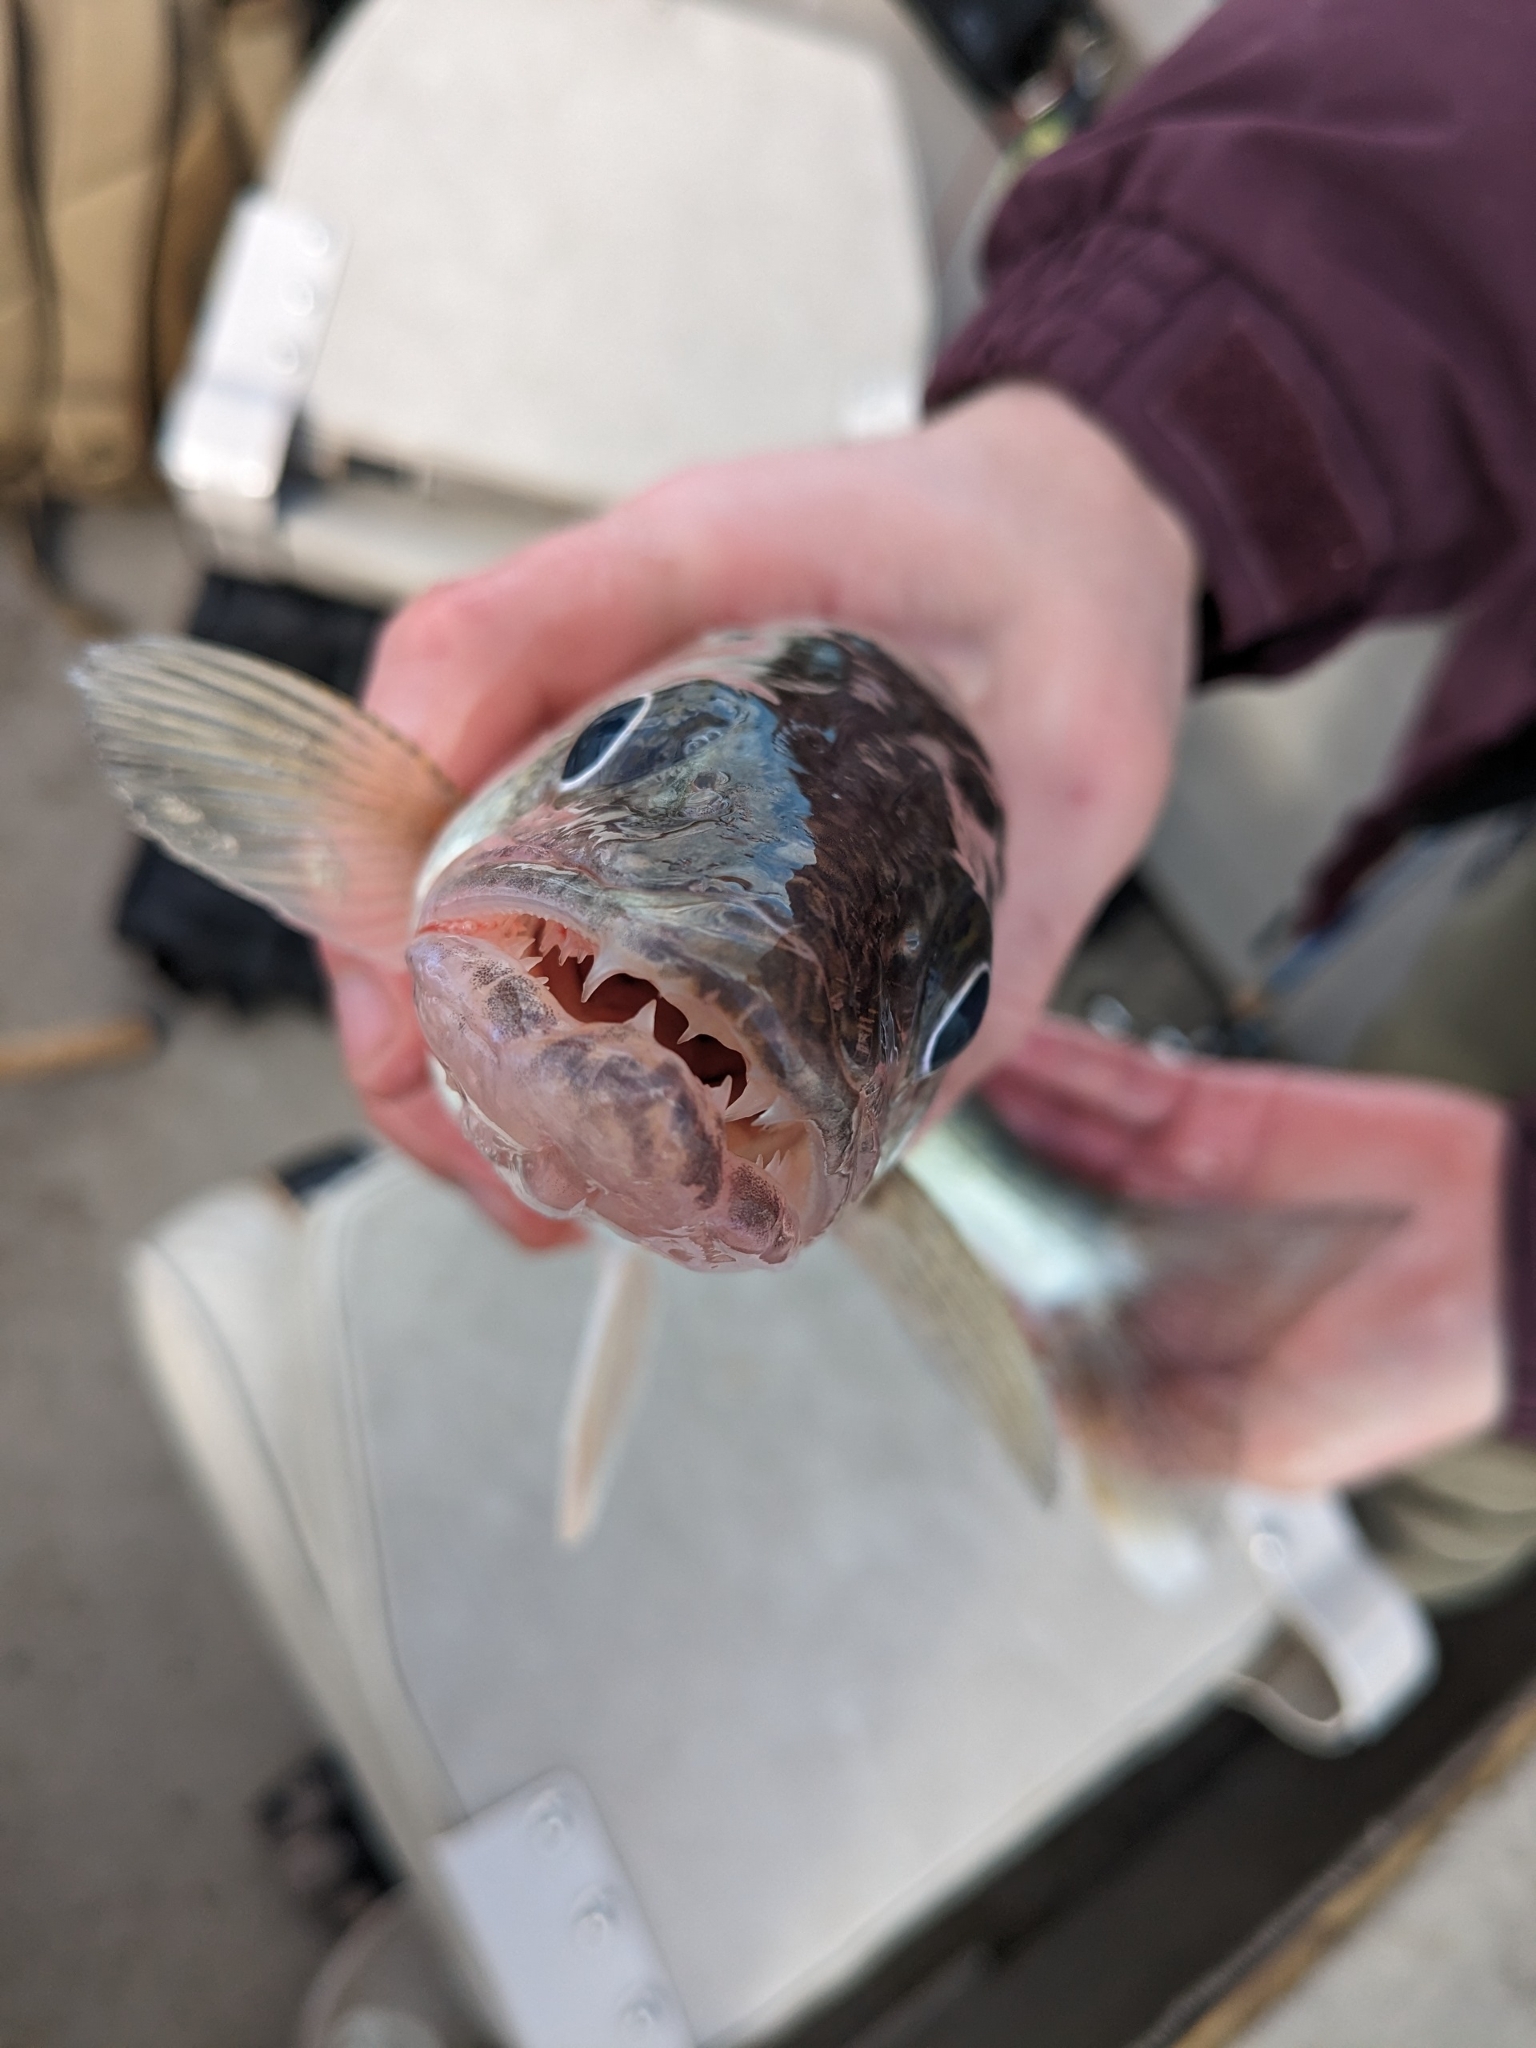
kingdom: Animalia
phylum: Chordata
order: Perciformes
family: Percidae
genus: Sander
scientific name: Sander vitreus
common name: Walleye
